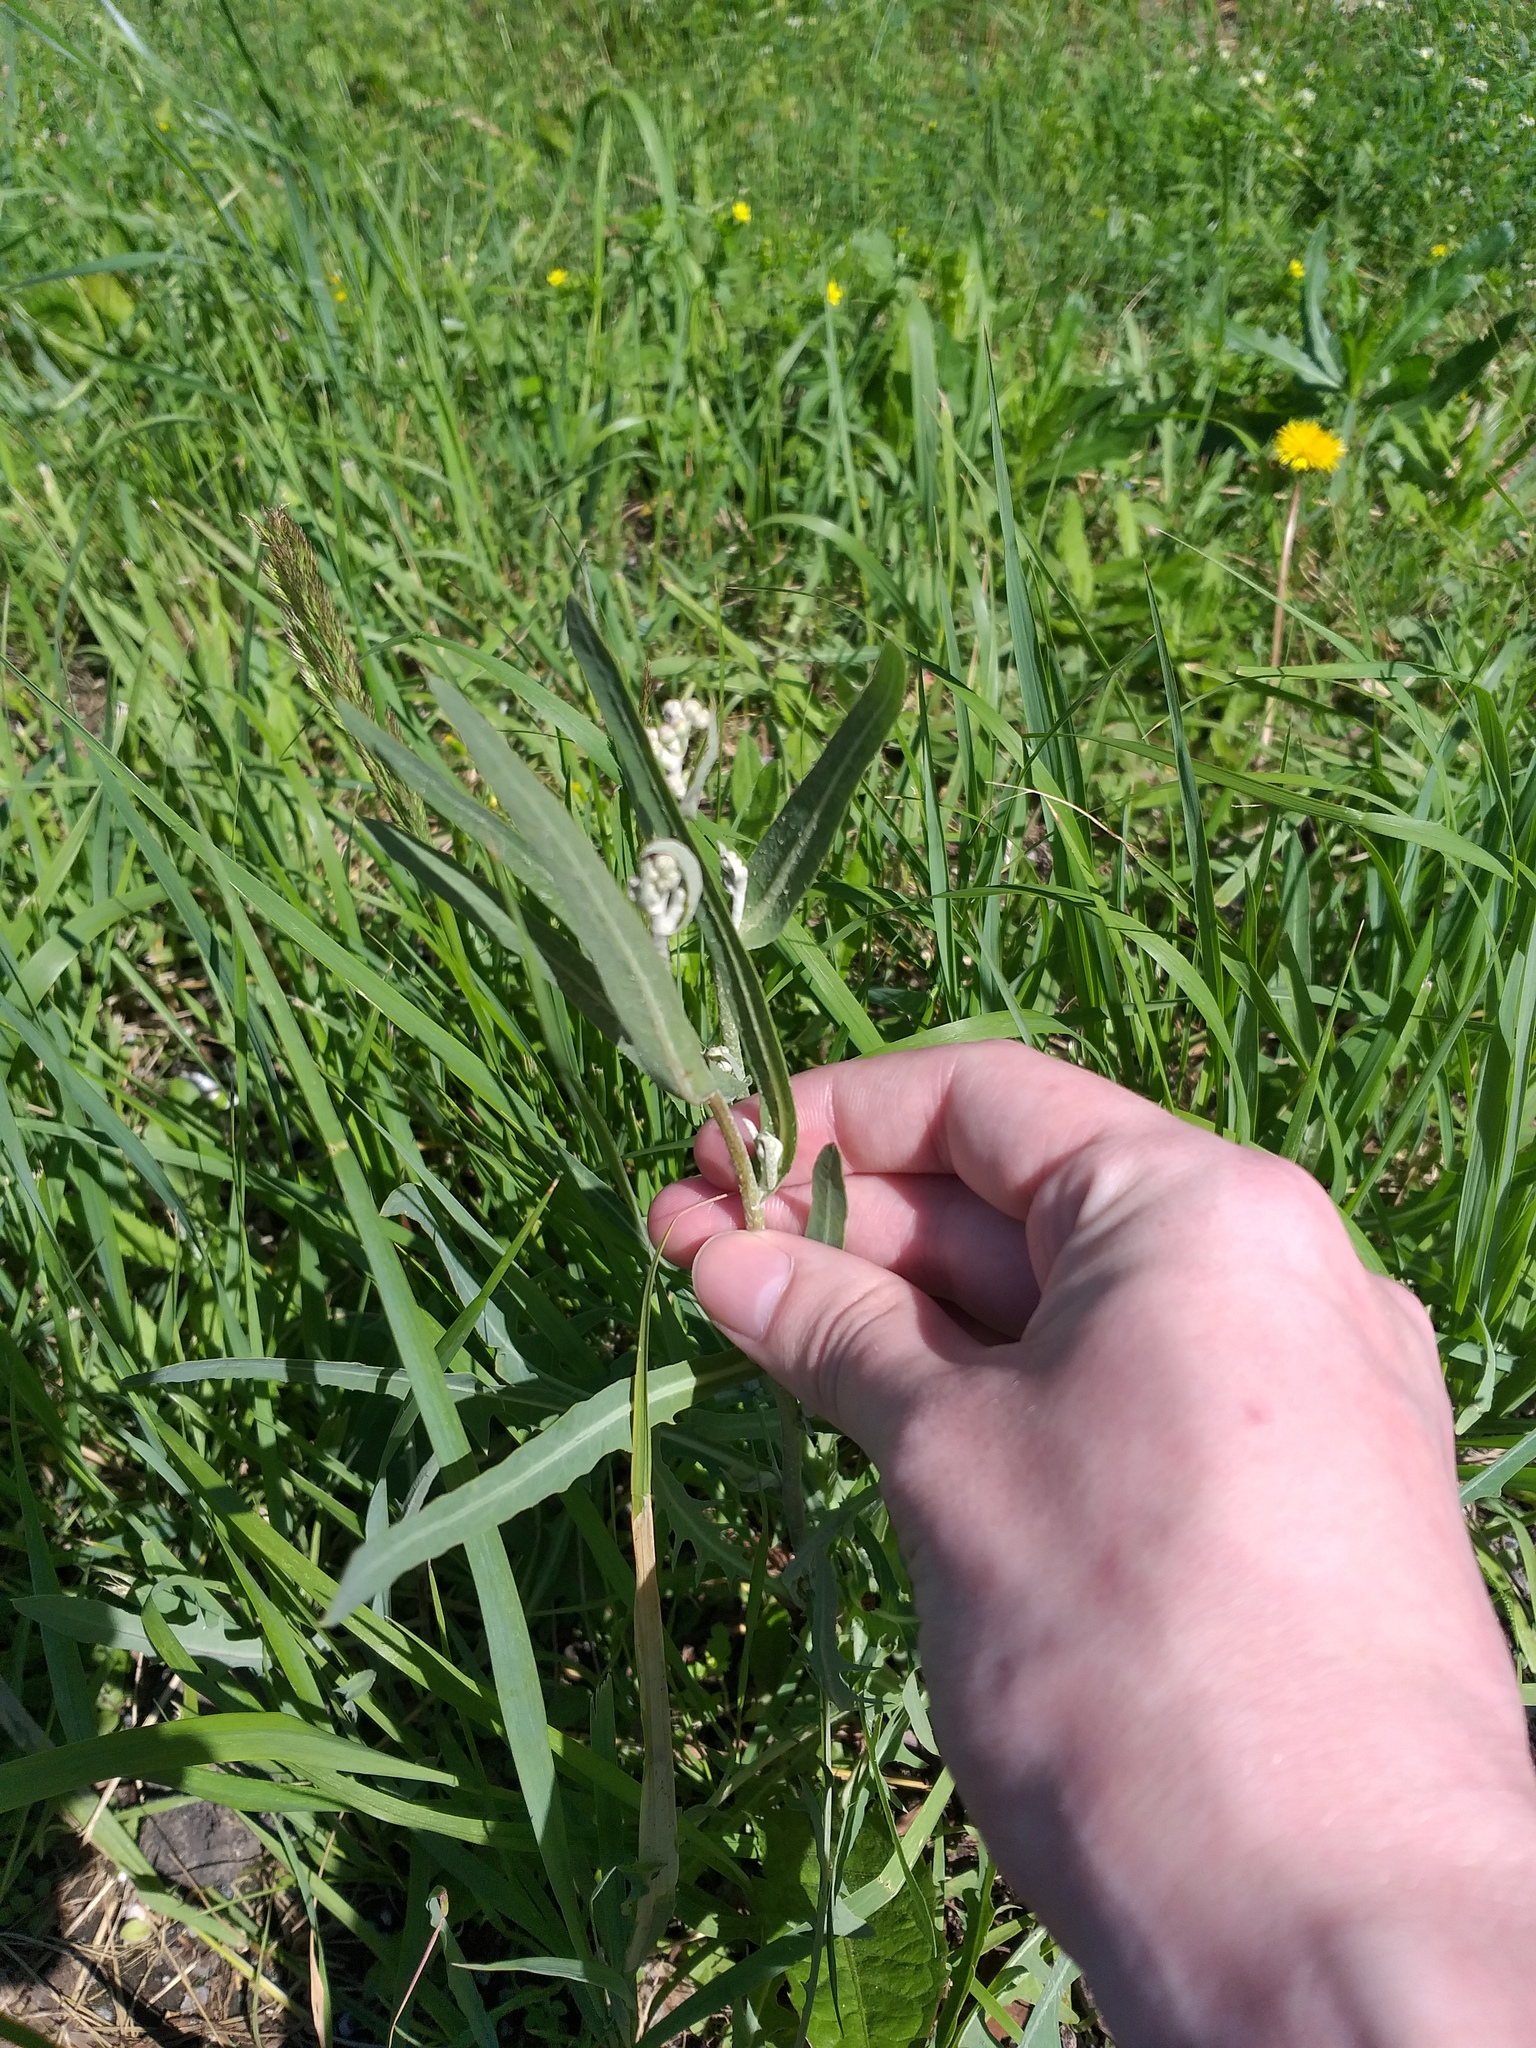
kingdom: Plantae
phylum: Tracheophyta
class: Magnoliopsida
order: Asterales
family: Asteraceae
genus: Lactuca
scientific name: Lactuca tatarica
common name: Blue lettuce
